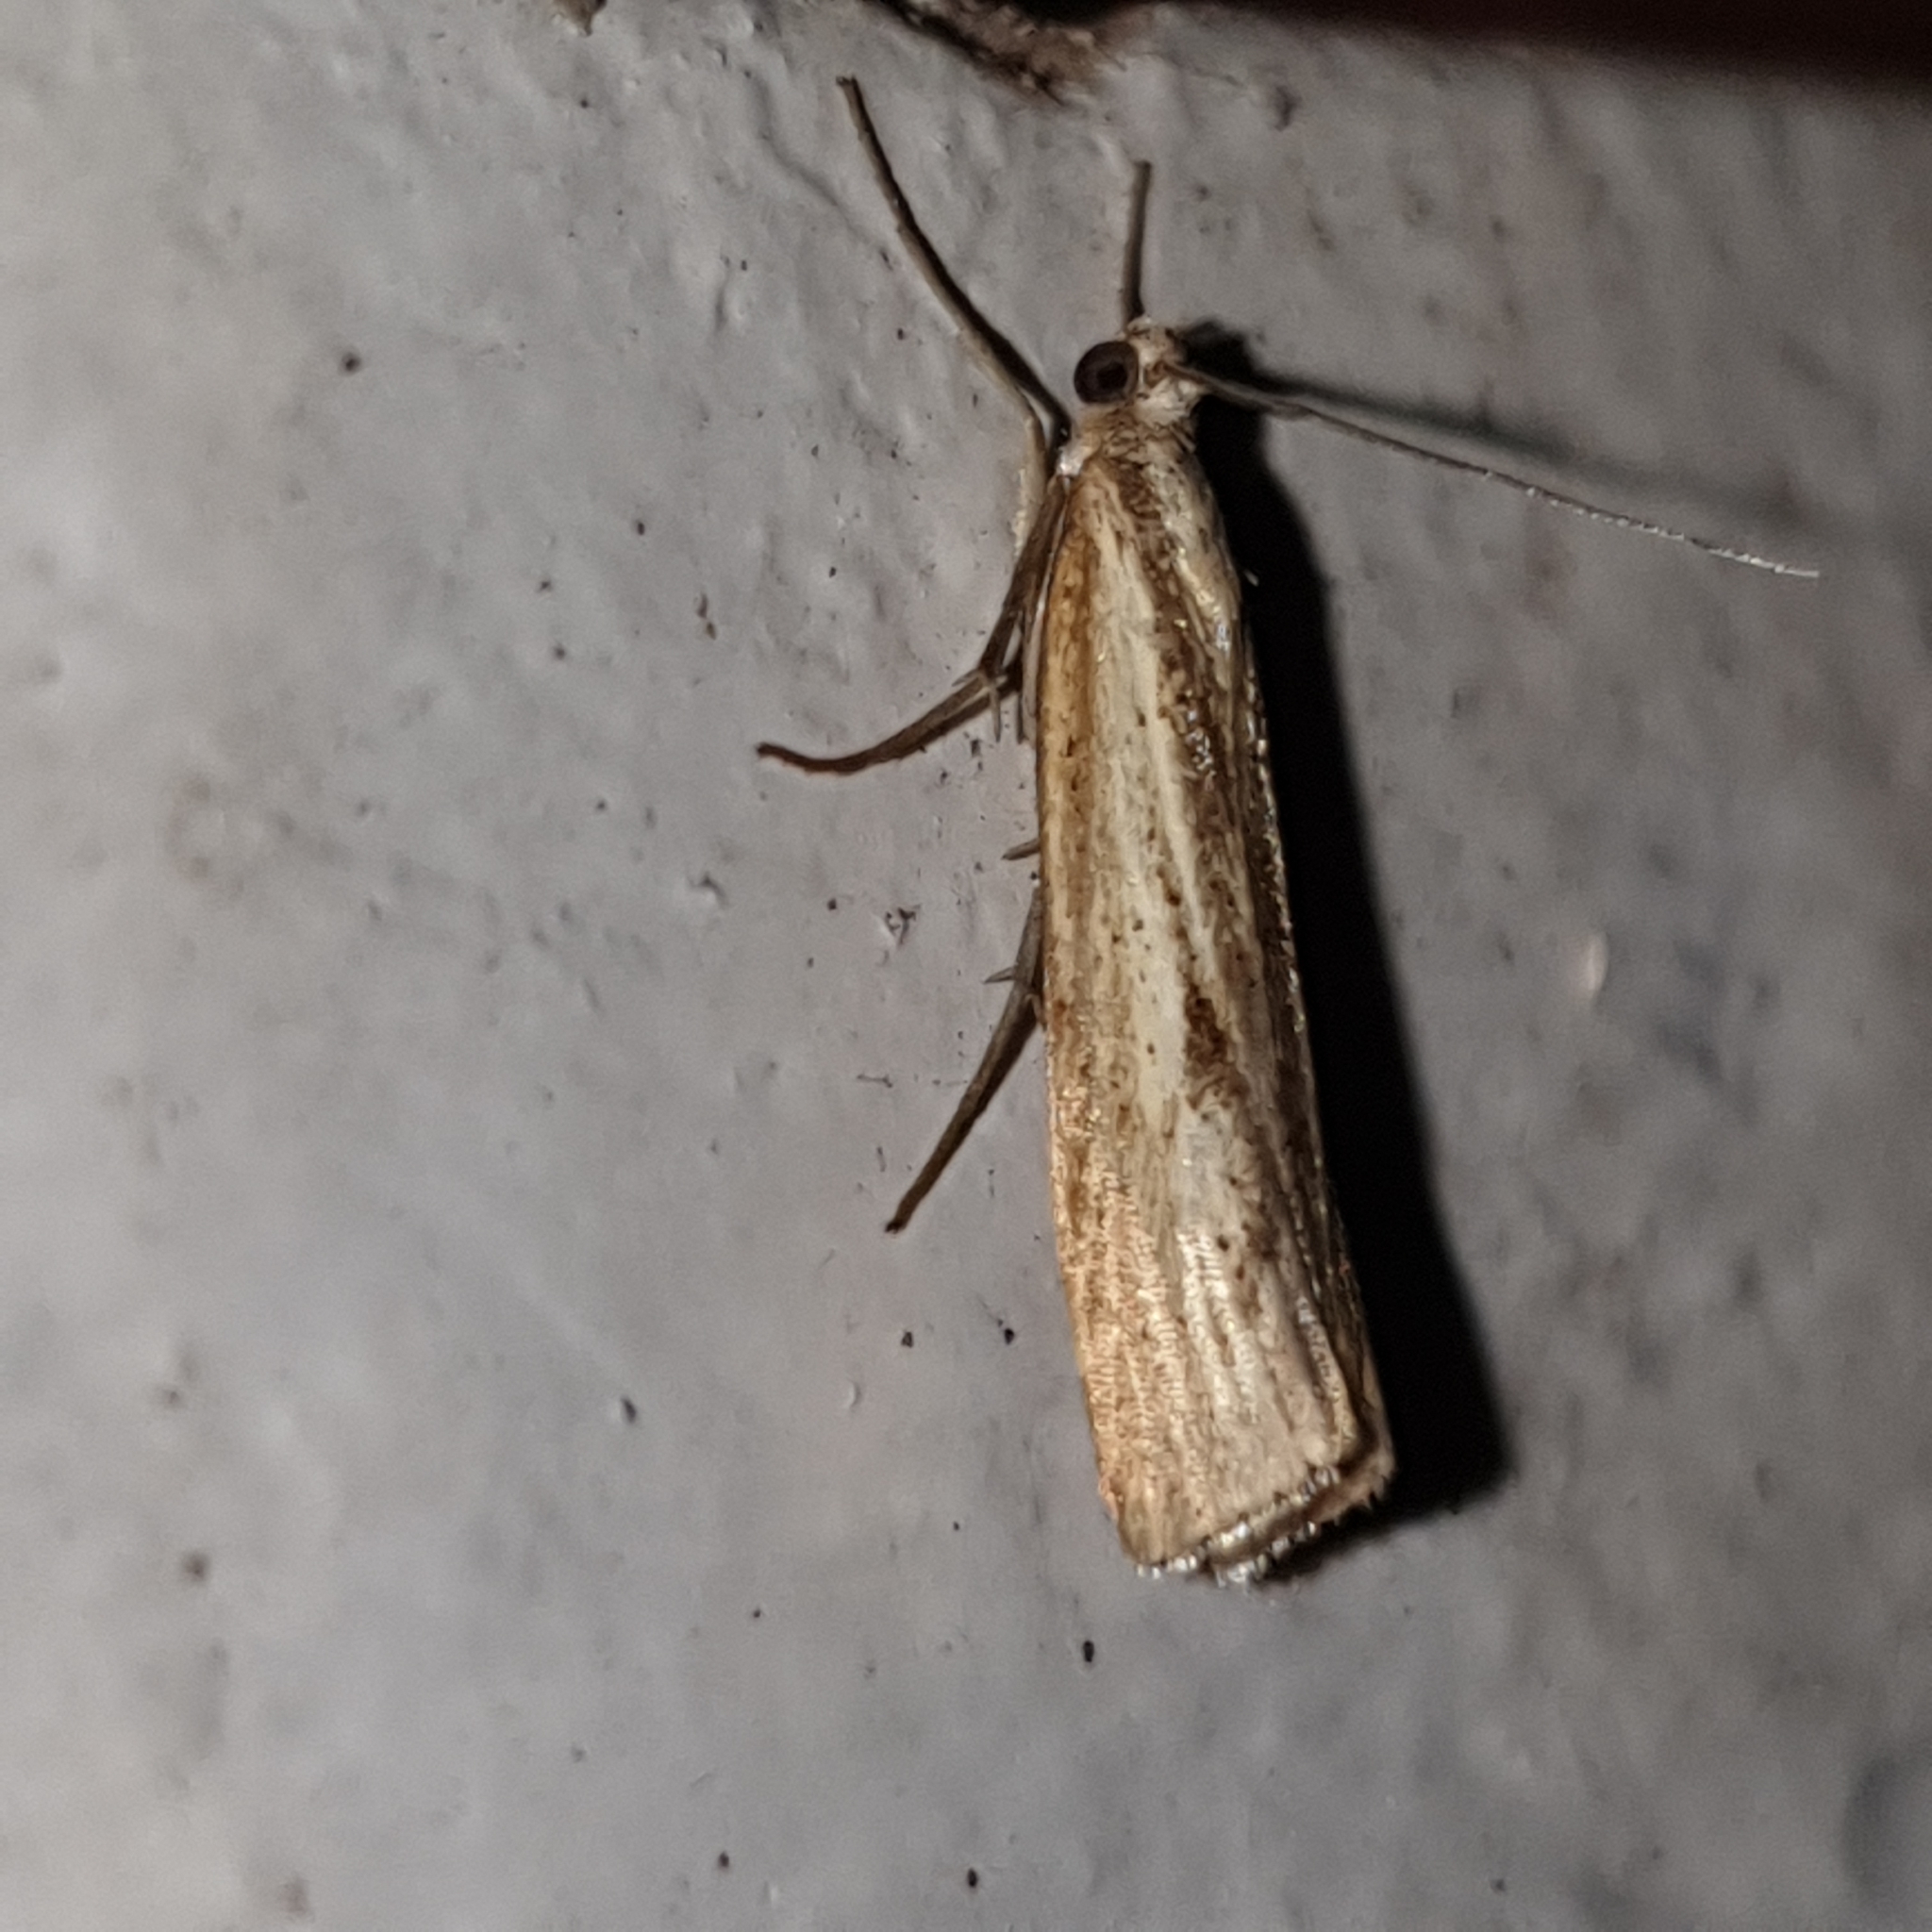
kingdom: Animalia
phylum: Arthropoda
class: Insecta
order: Lepidoptera
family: Crambidae
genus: Agriphila
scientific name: Agriphila inquinatella
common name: Barred grass-veneer
